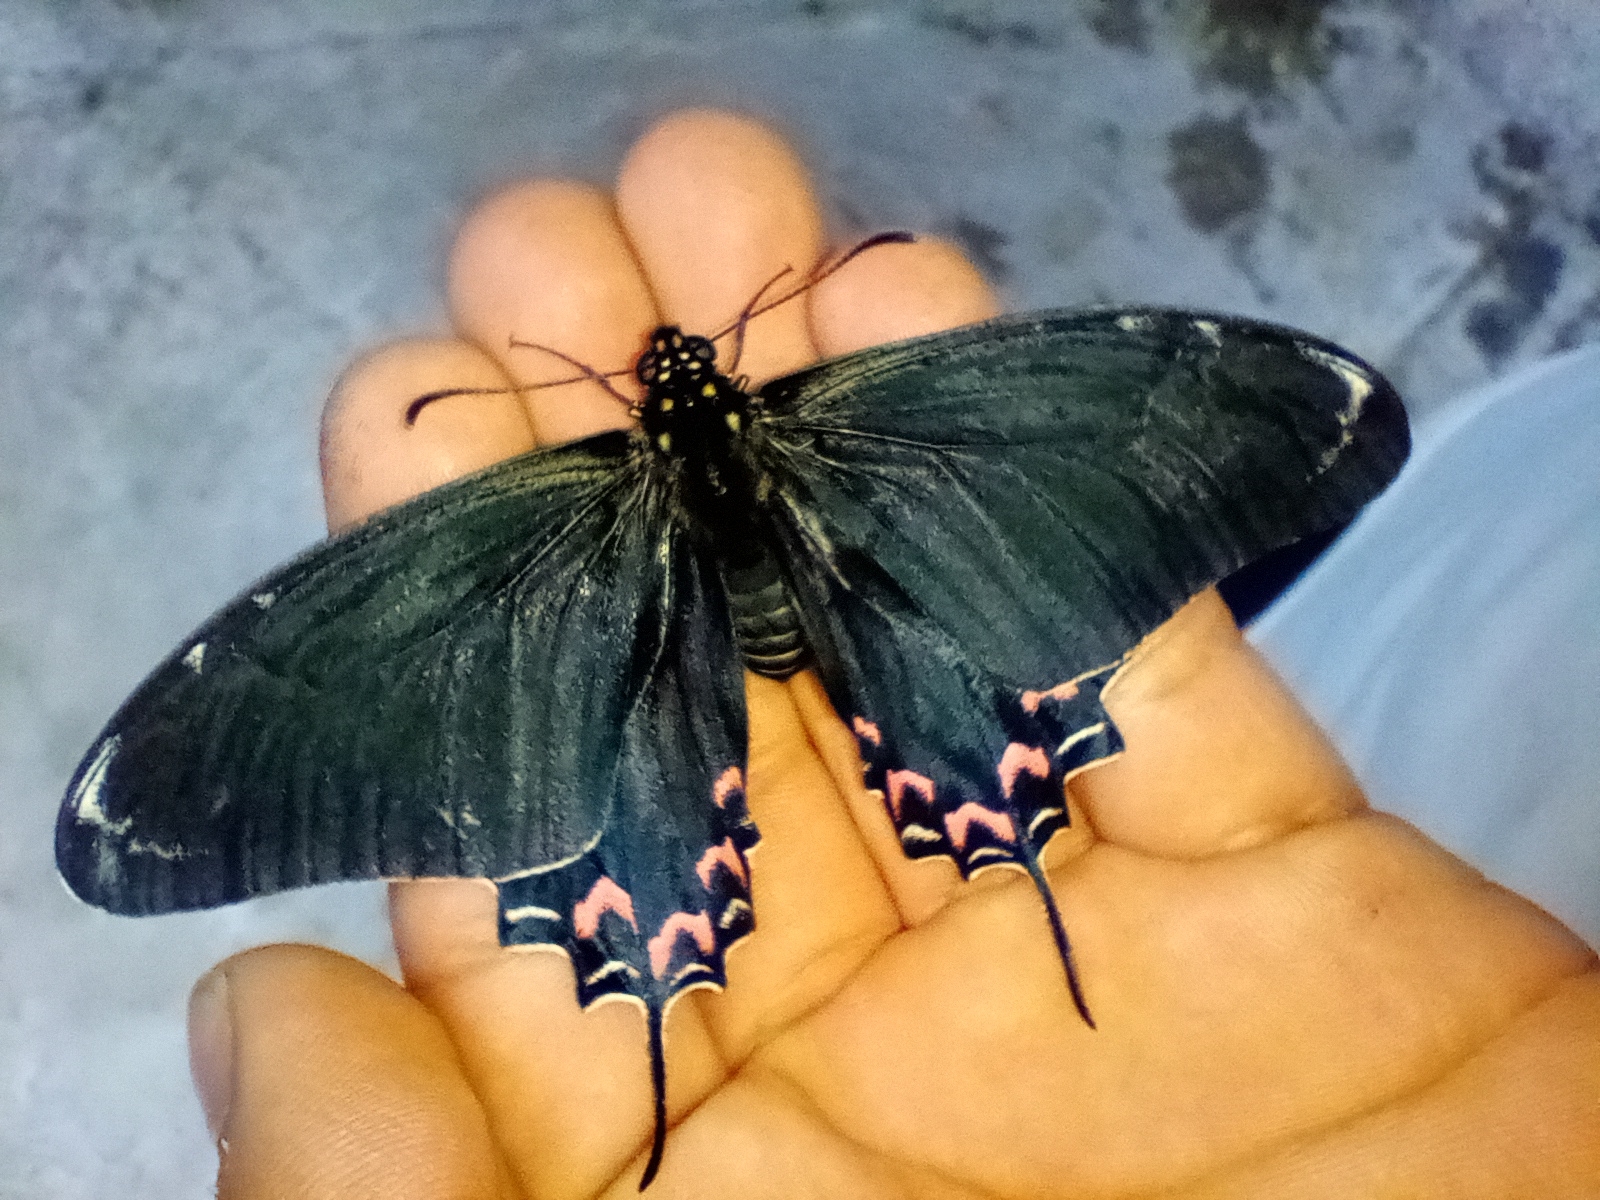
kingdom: Animalia
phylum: Arthropoda
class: Insecta
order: Lepidoptera
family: Papilionidae
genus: Mimoides
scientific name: Mimoides thymbraeus
